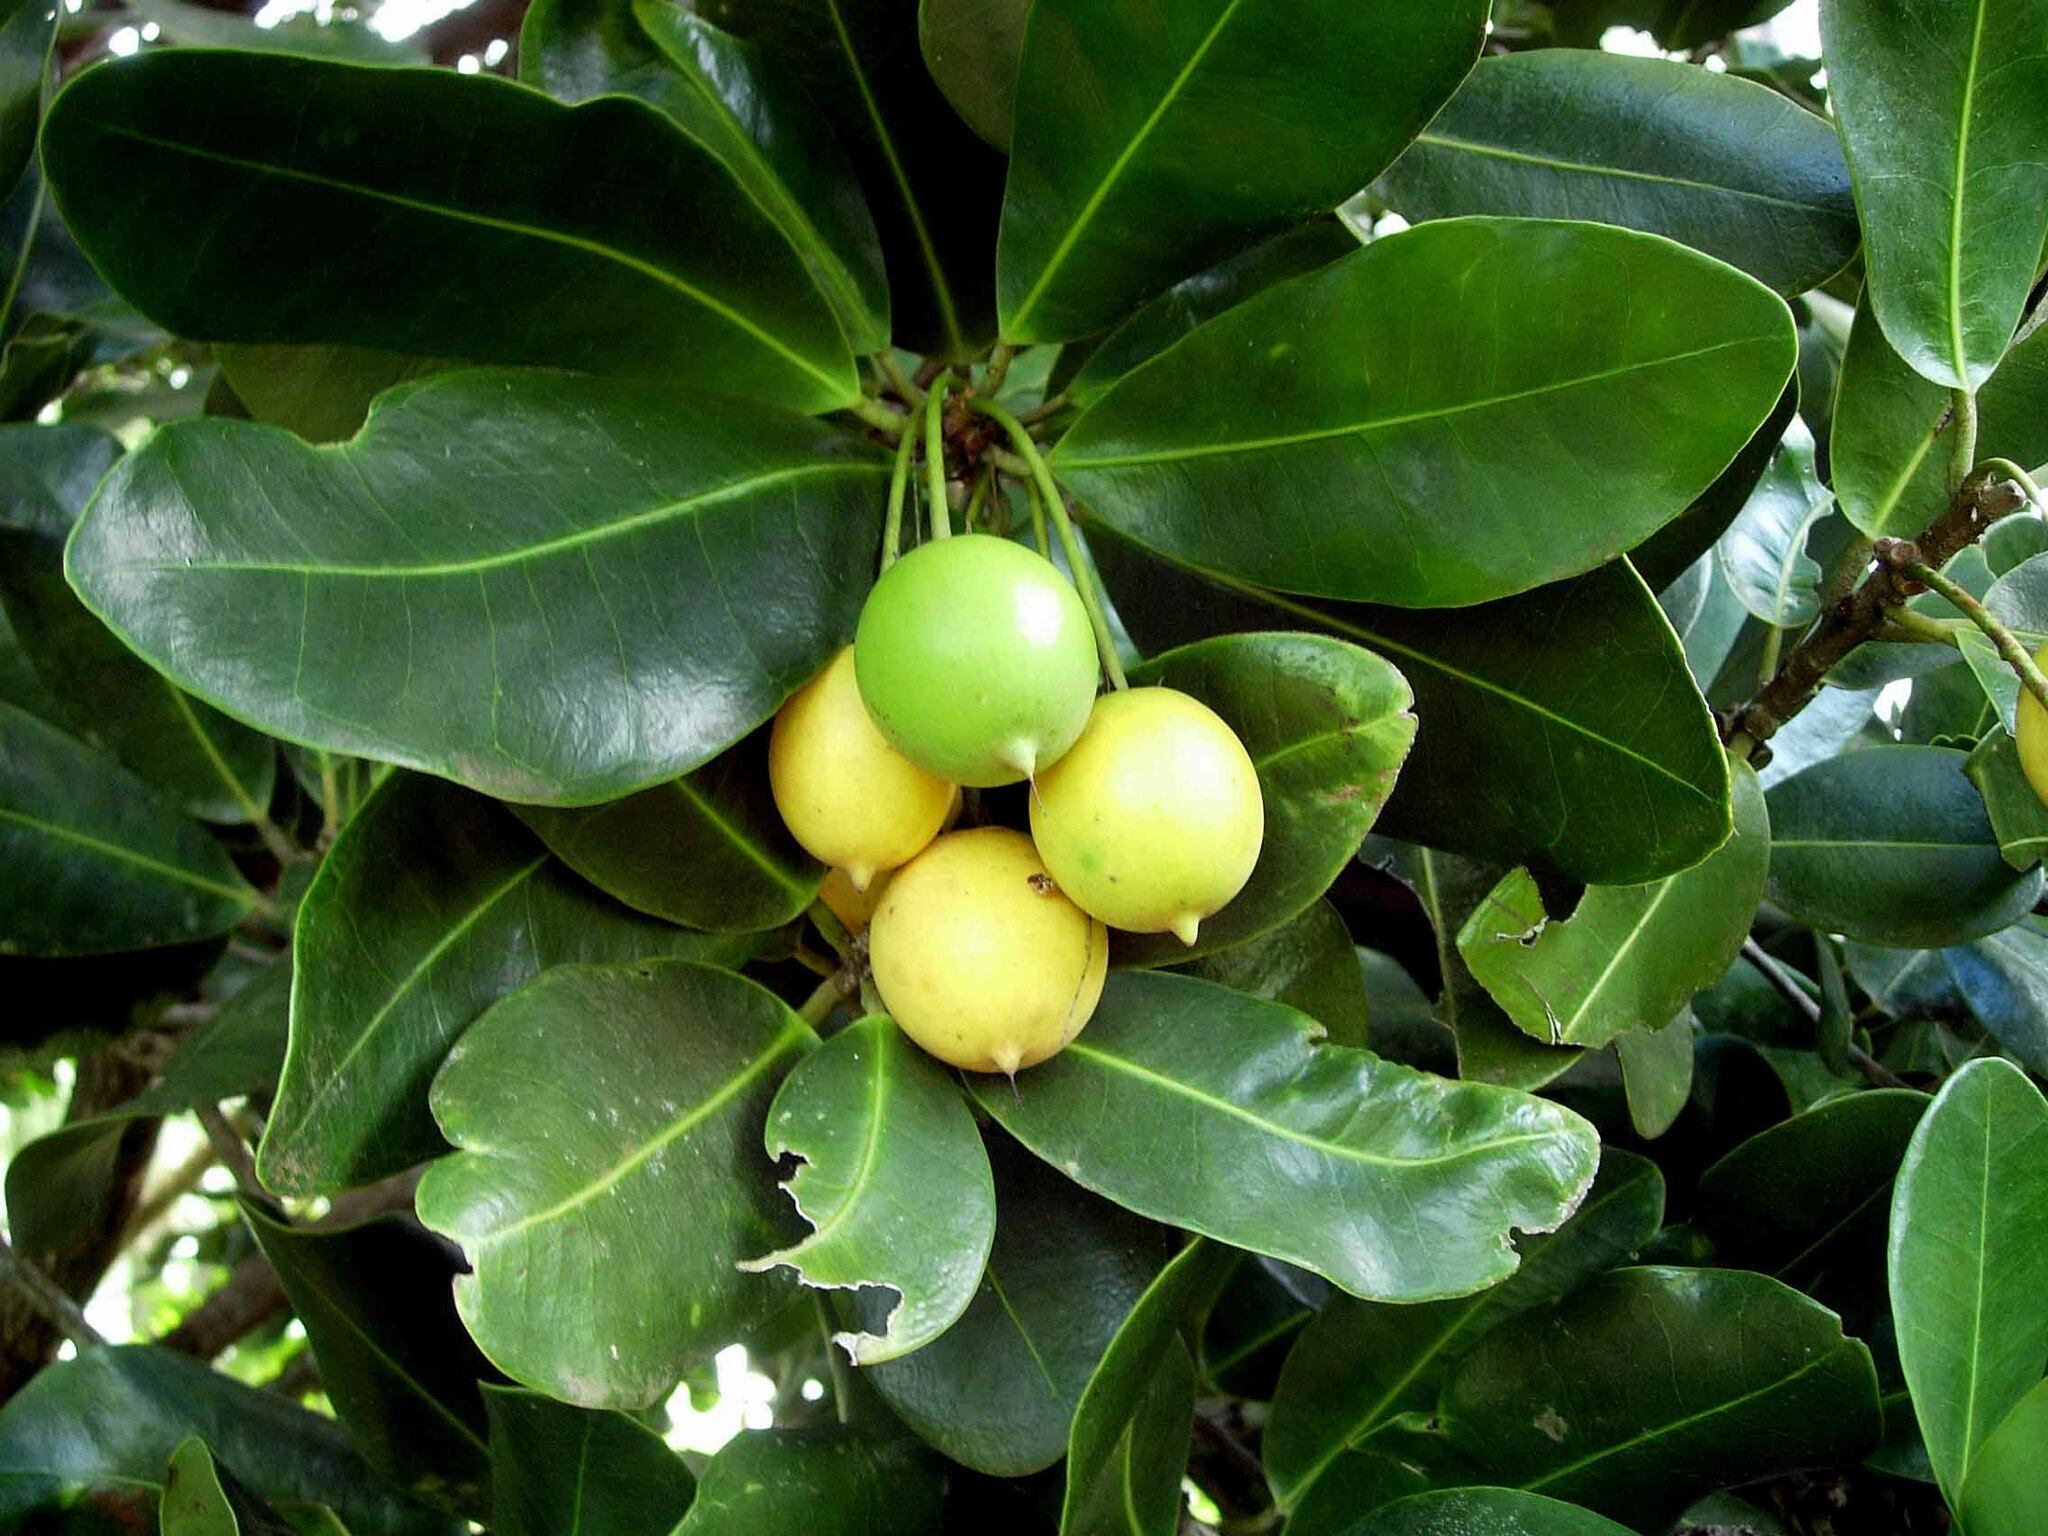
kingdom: Plantae
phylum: Tracheophyta
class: Magnoliopsida
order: Malpighiales
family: Calophyllaceae
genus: Calophyllum
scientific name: Calophyllum inophyllum
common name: Alexandrian laurel
